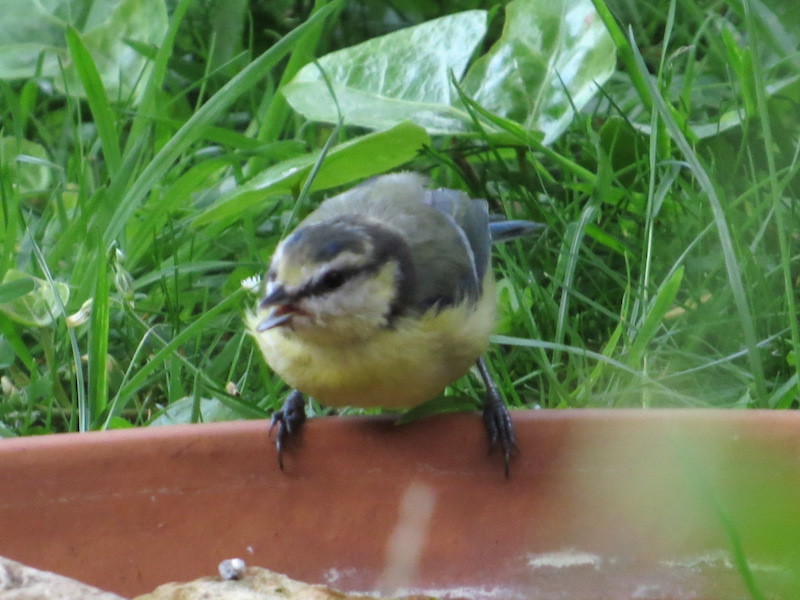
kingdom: Animalia
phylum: Chordata
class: Aves
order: Passeriformes
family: Paridae
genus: Cyanistes
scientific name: Cyanistes caeruleus
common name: Eurasian blue tit
